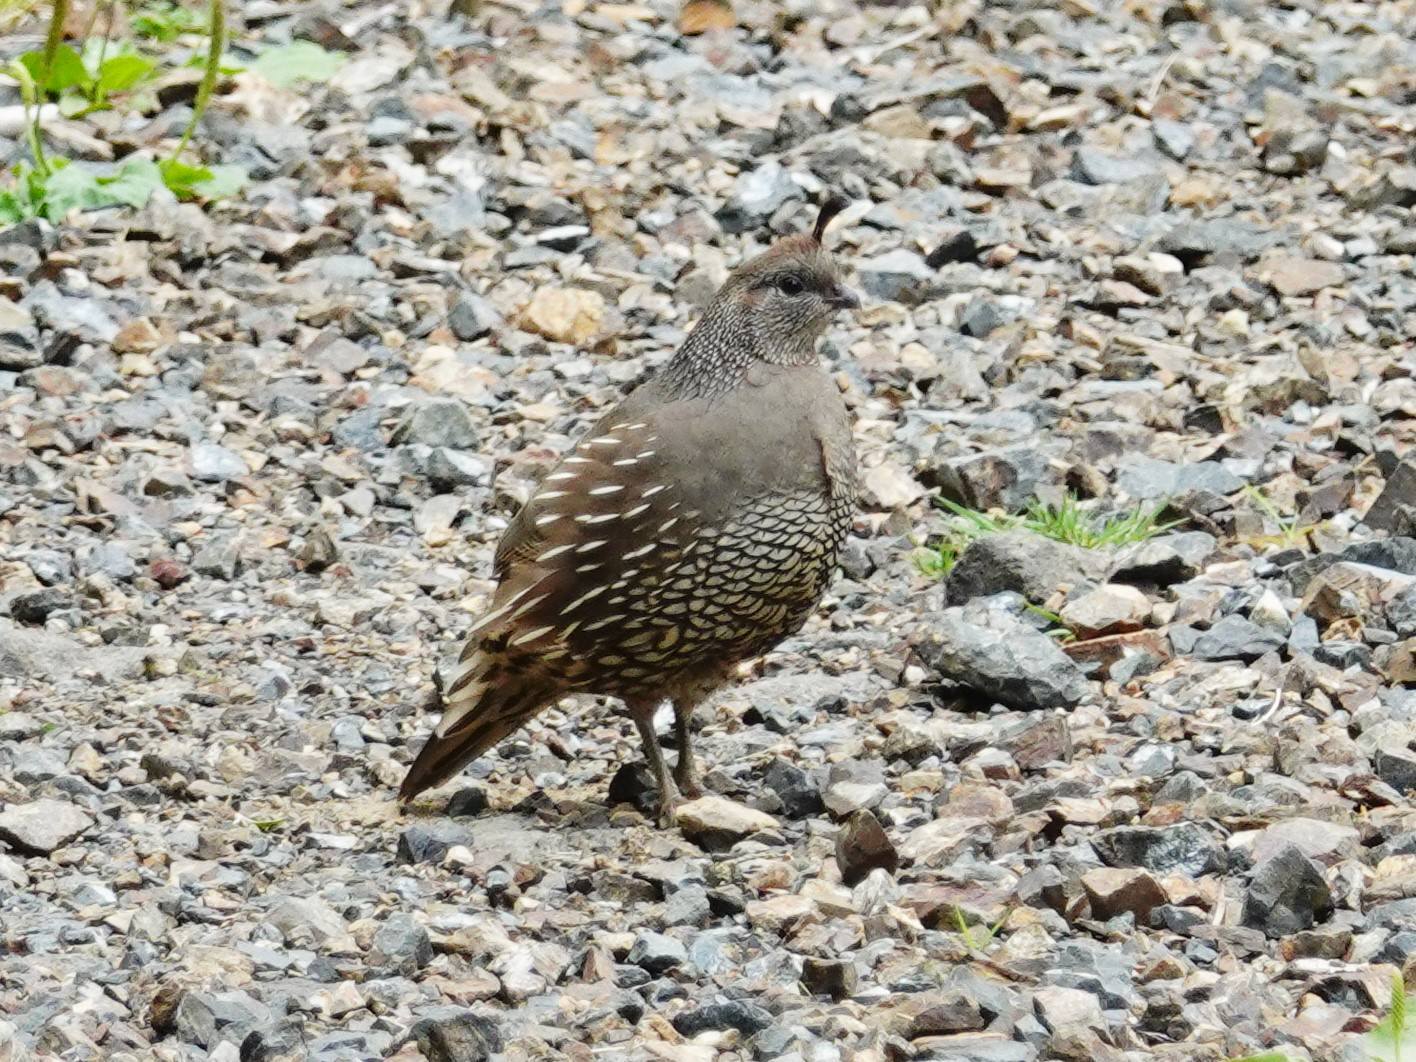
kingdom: Animalia
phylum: Chordata
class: Aves
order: Galliformes
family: Odontophoridae
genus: Callipepla
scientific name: Callipepla californica
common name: California quail
